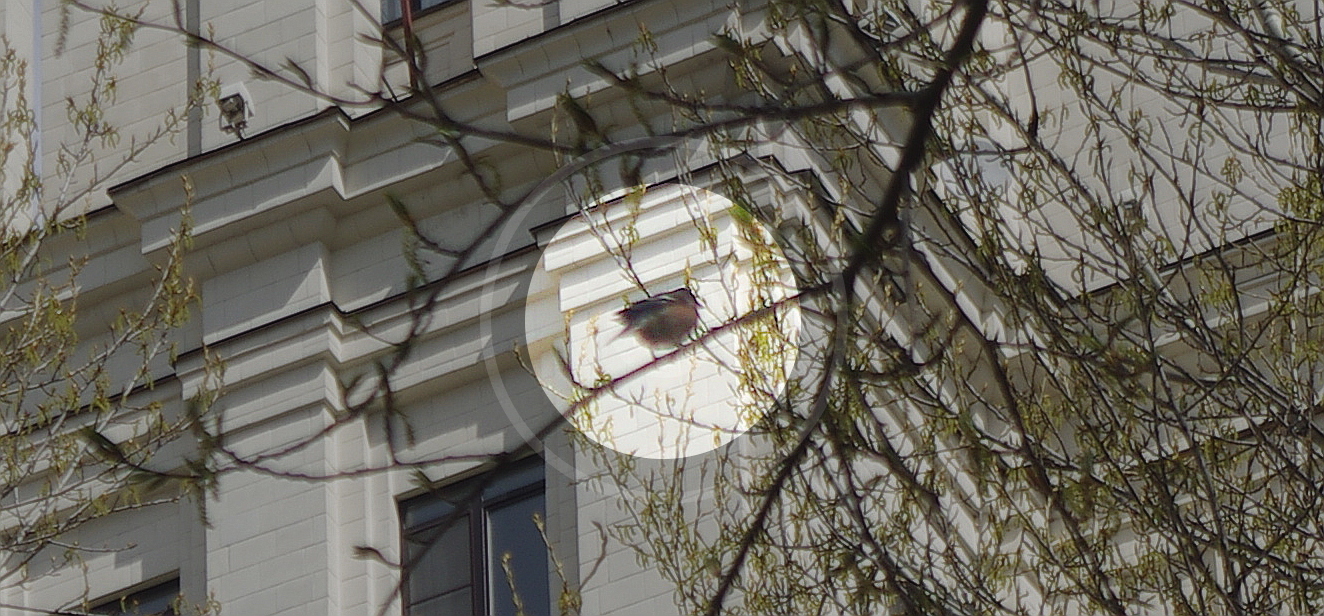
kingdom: Animalia
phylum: Chordata
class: Aves
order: Passeriformes
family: Fringillidae
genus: Fringilla
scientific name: Fringilla coelebs
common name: Common chaffinch
